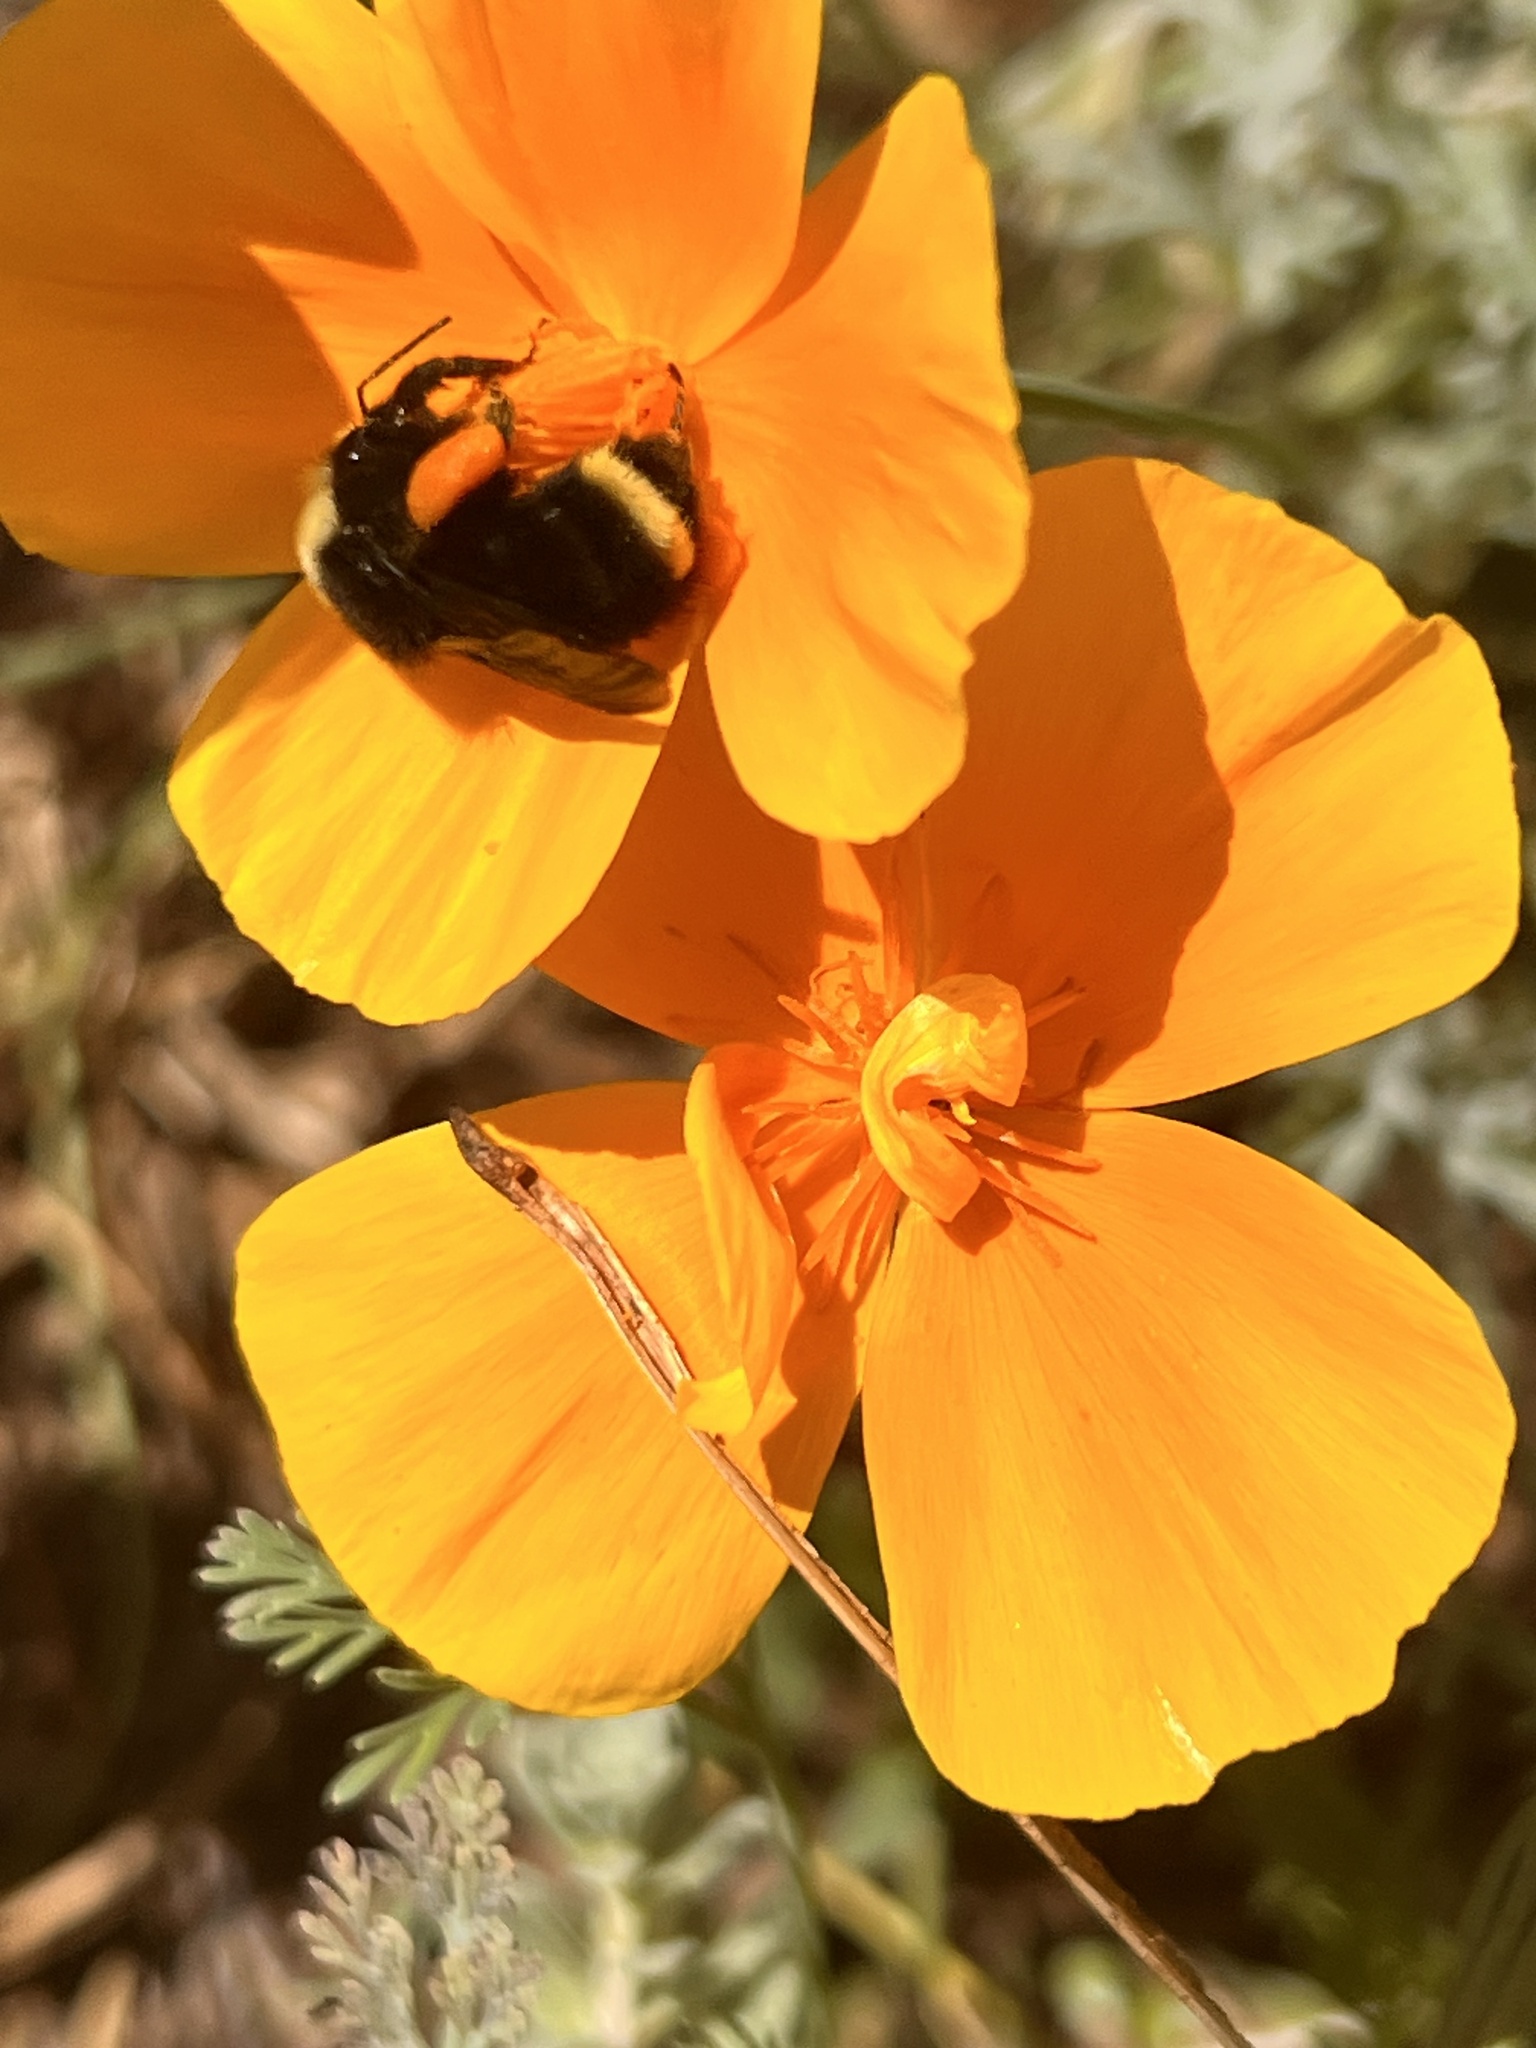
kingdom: Animalia
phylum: Arthropoda
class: Insecta
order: Hymenoptera
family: Apidae
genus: Bombus
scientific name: Bombus vosnesenskii
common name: Vosnesensky bumble bee
